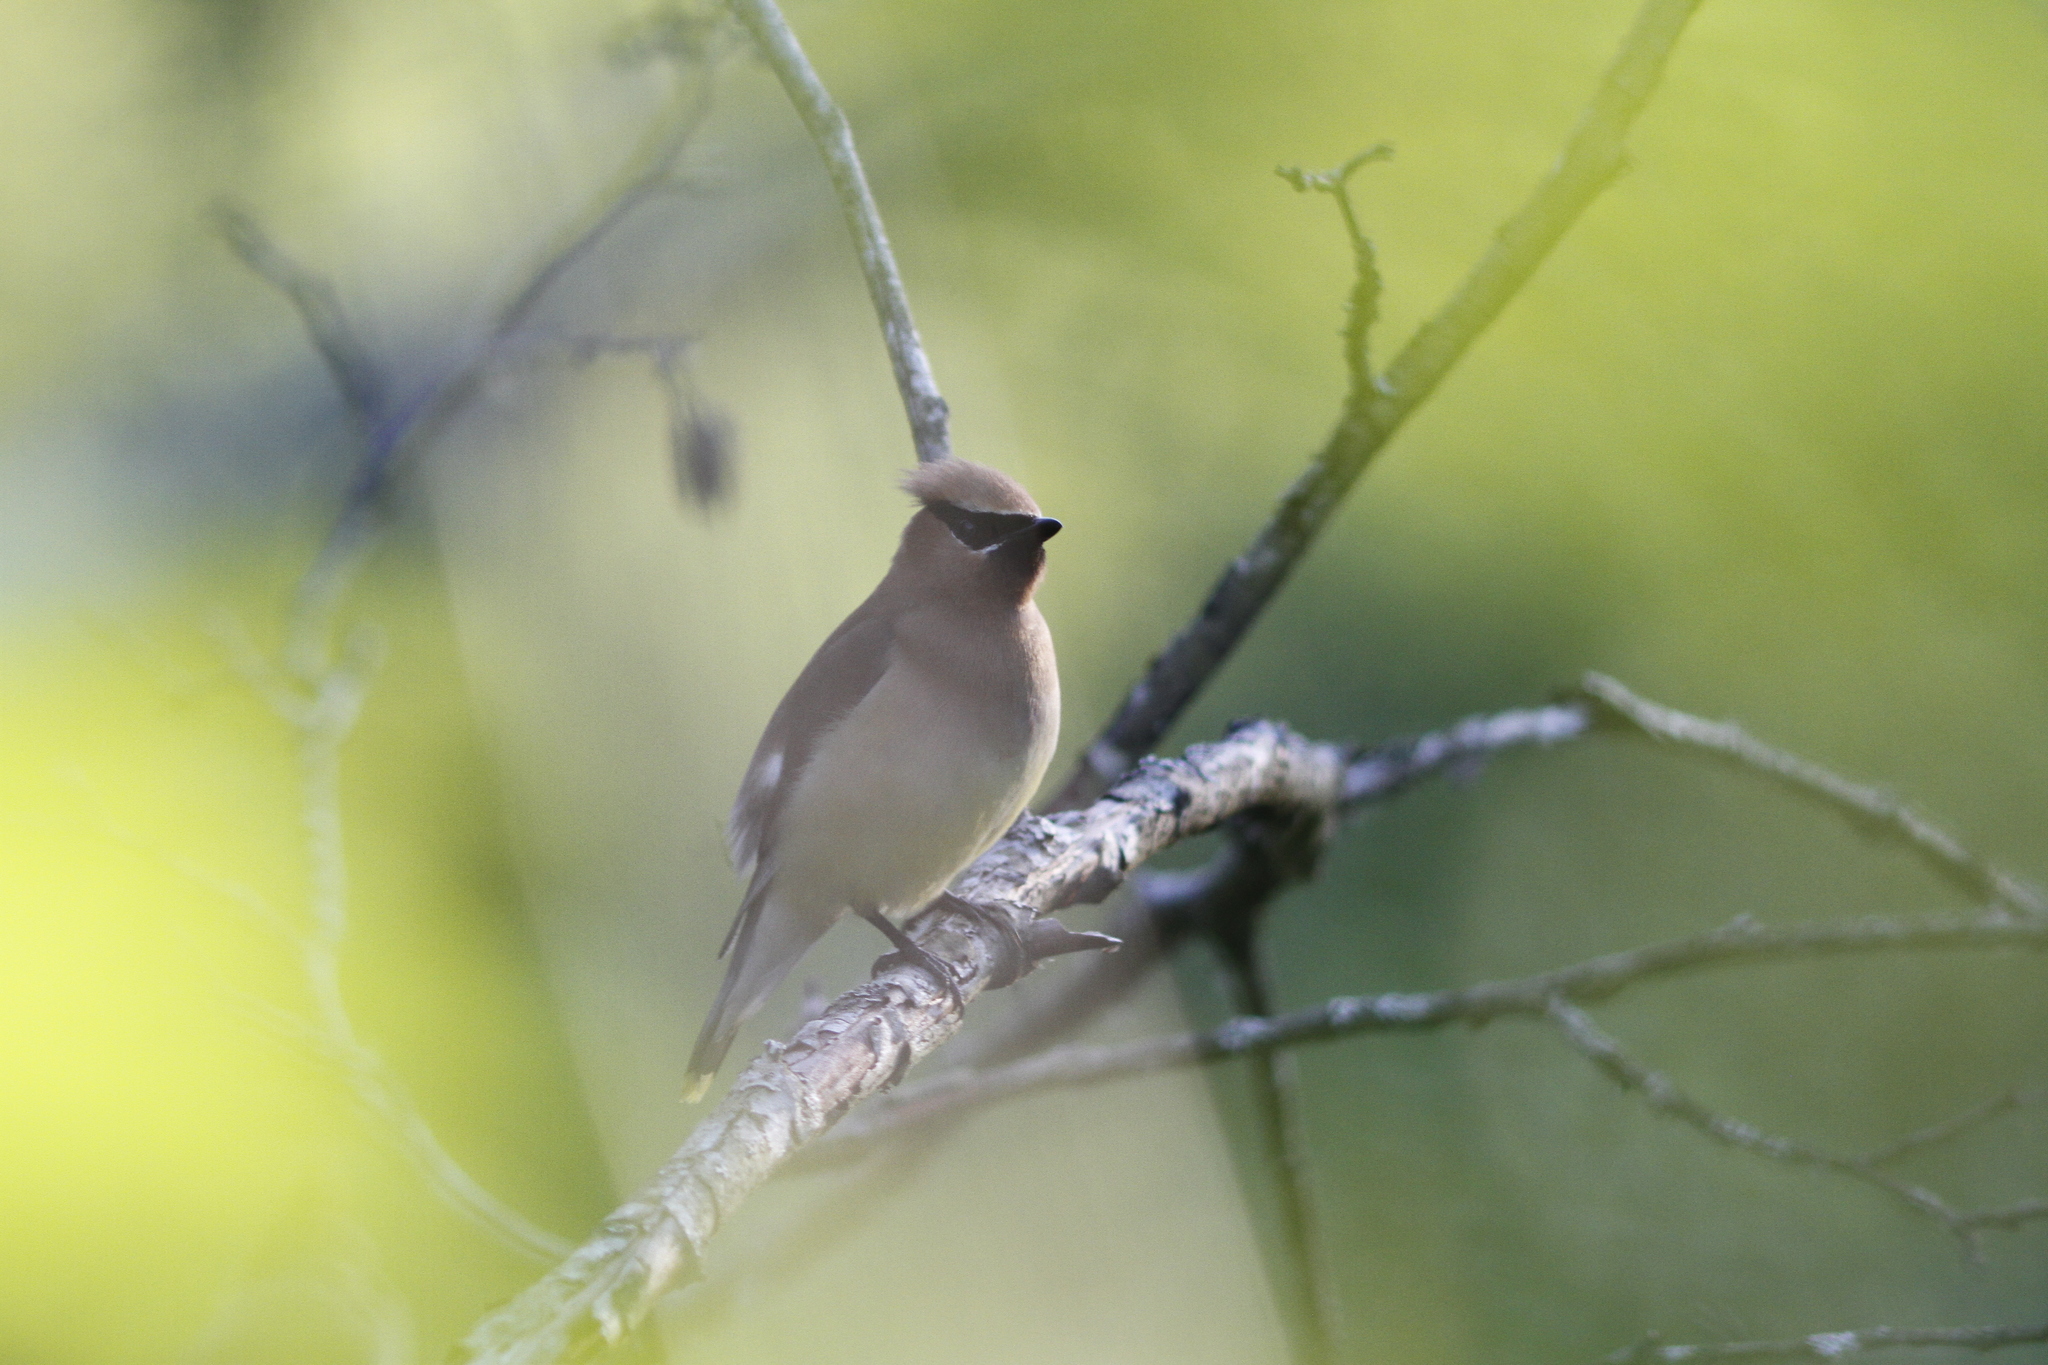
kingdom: Animalia
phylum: Chordata
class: Aves
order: Passeriformes
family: Bombycillidae
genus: Bombycilla
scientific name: Bombycilla cedrorum
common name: Cedar waxwing
